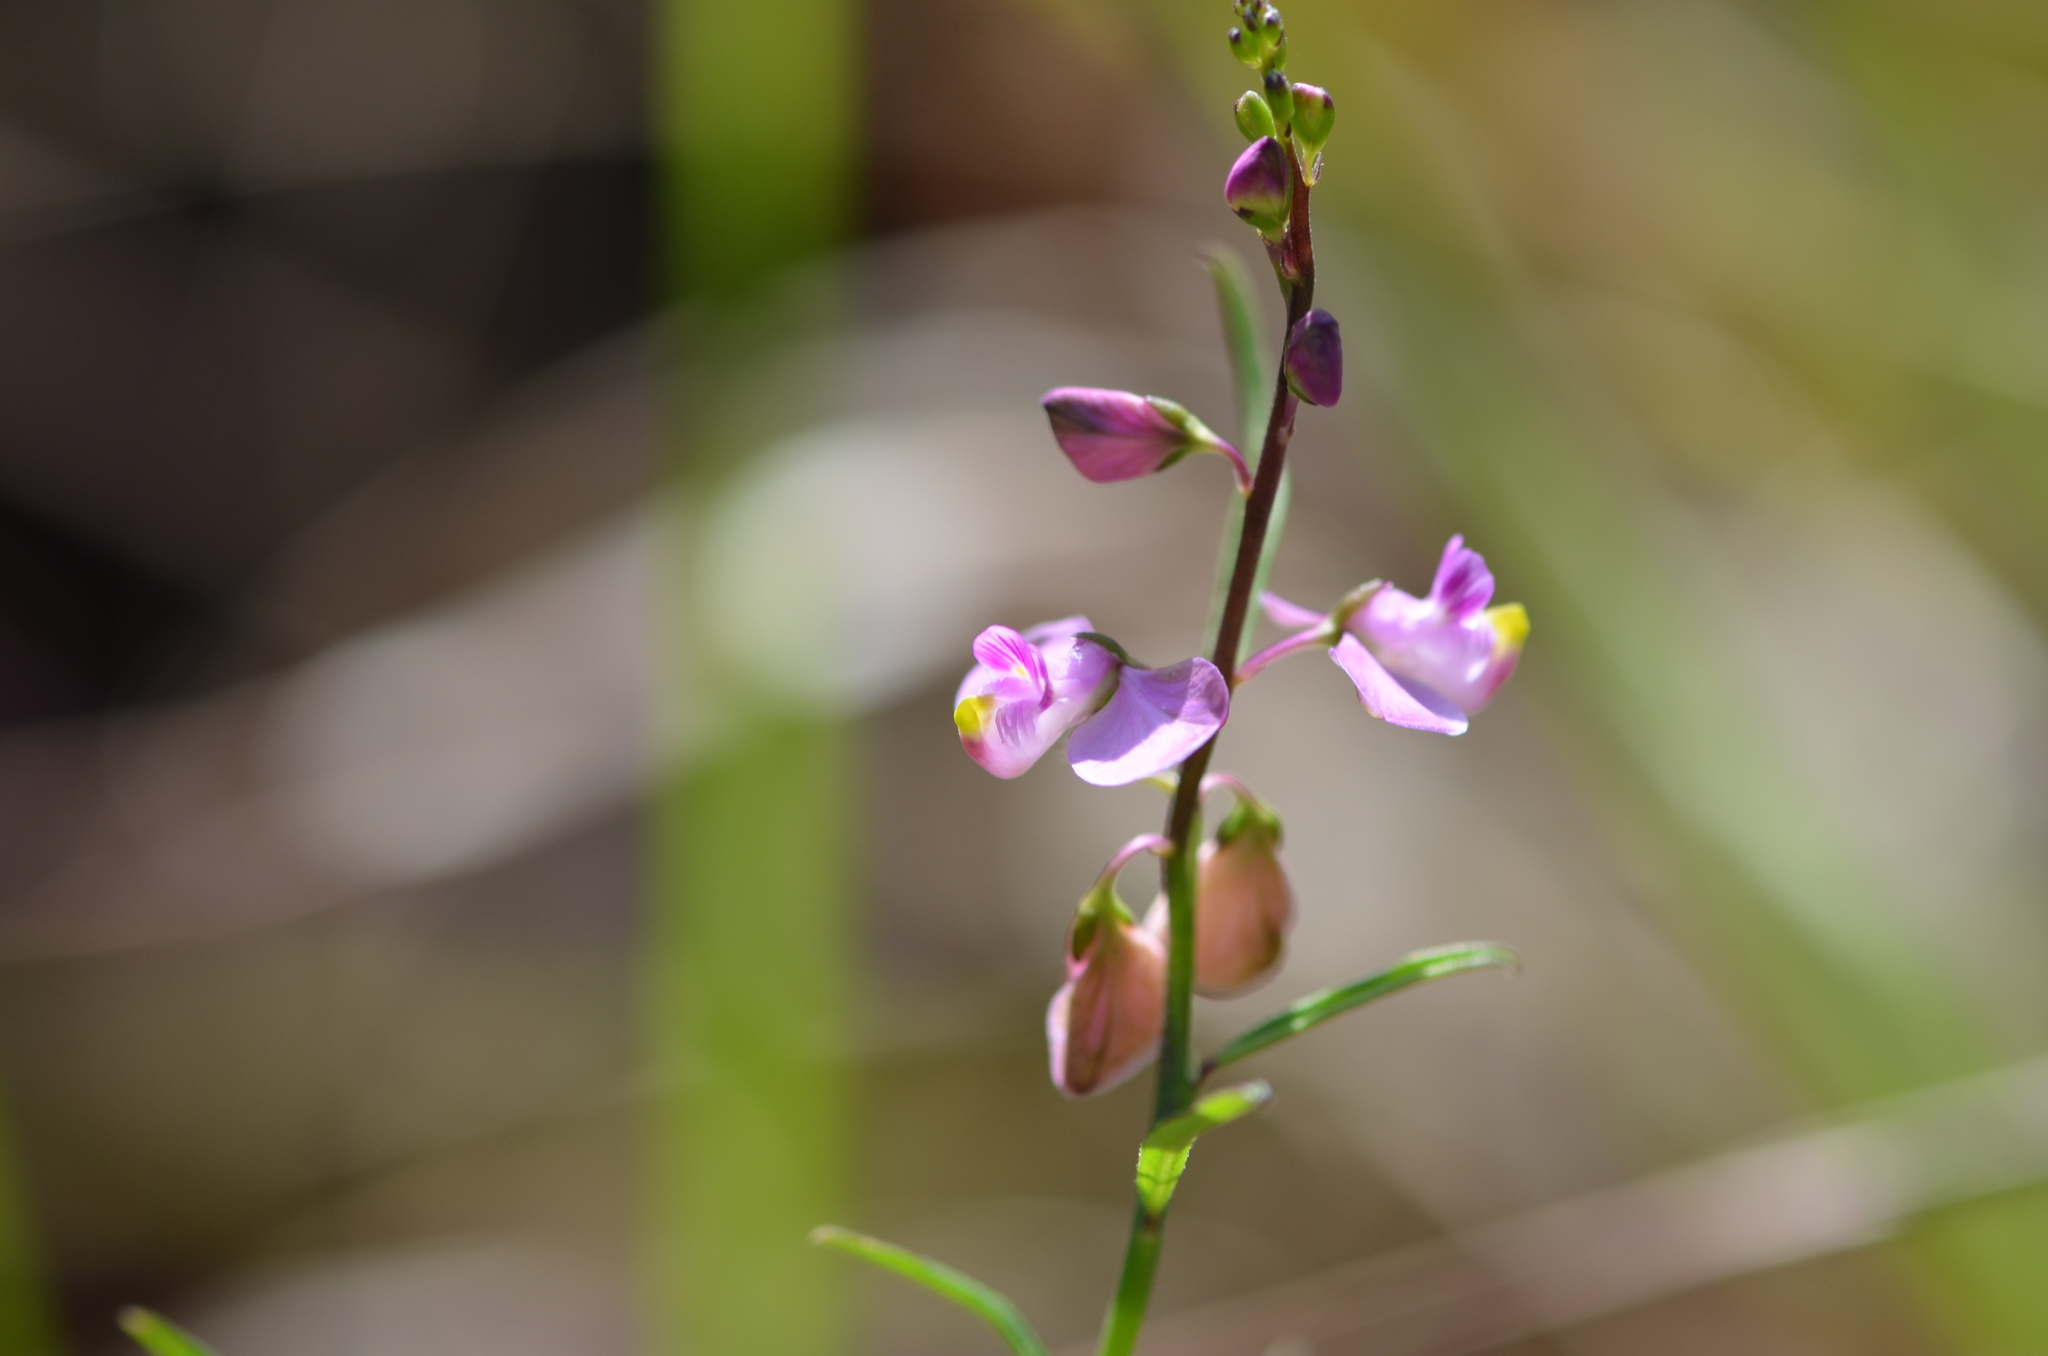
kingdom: Plantae
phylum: Tracheophyta
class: Magnoliopsida
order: Fabales
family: Polygalaceae
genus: Asemeia
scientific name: Asemeia grandiflora
